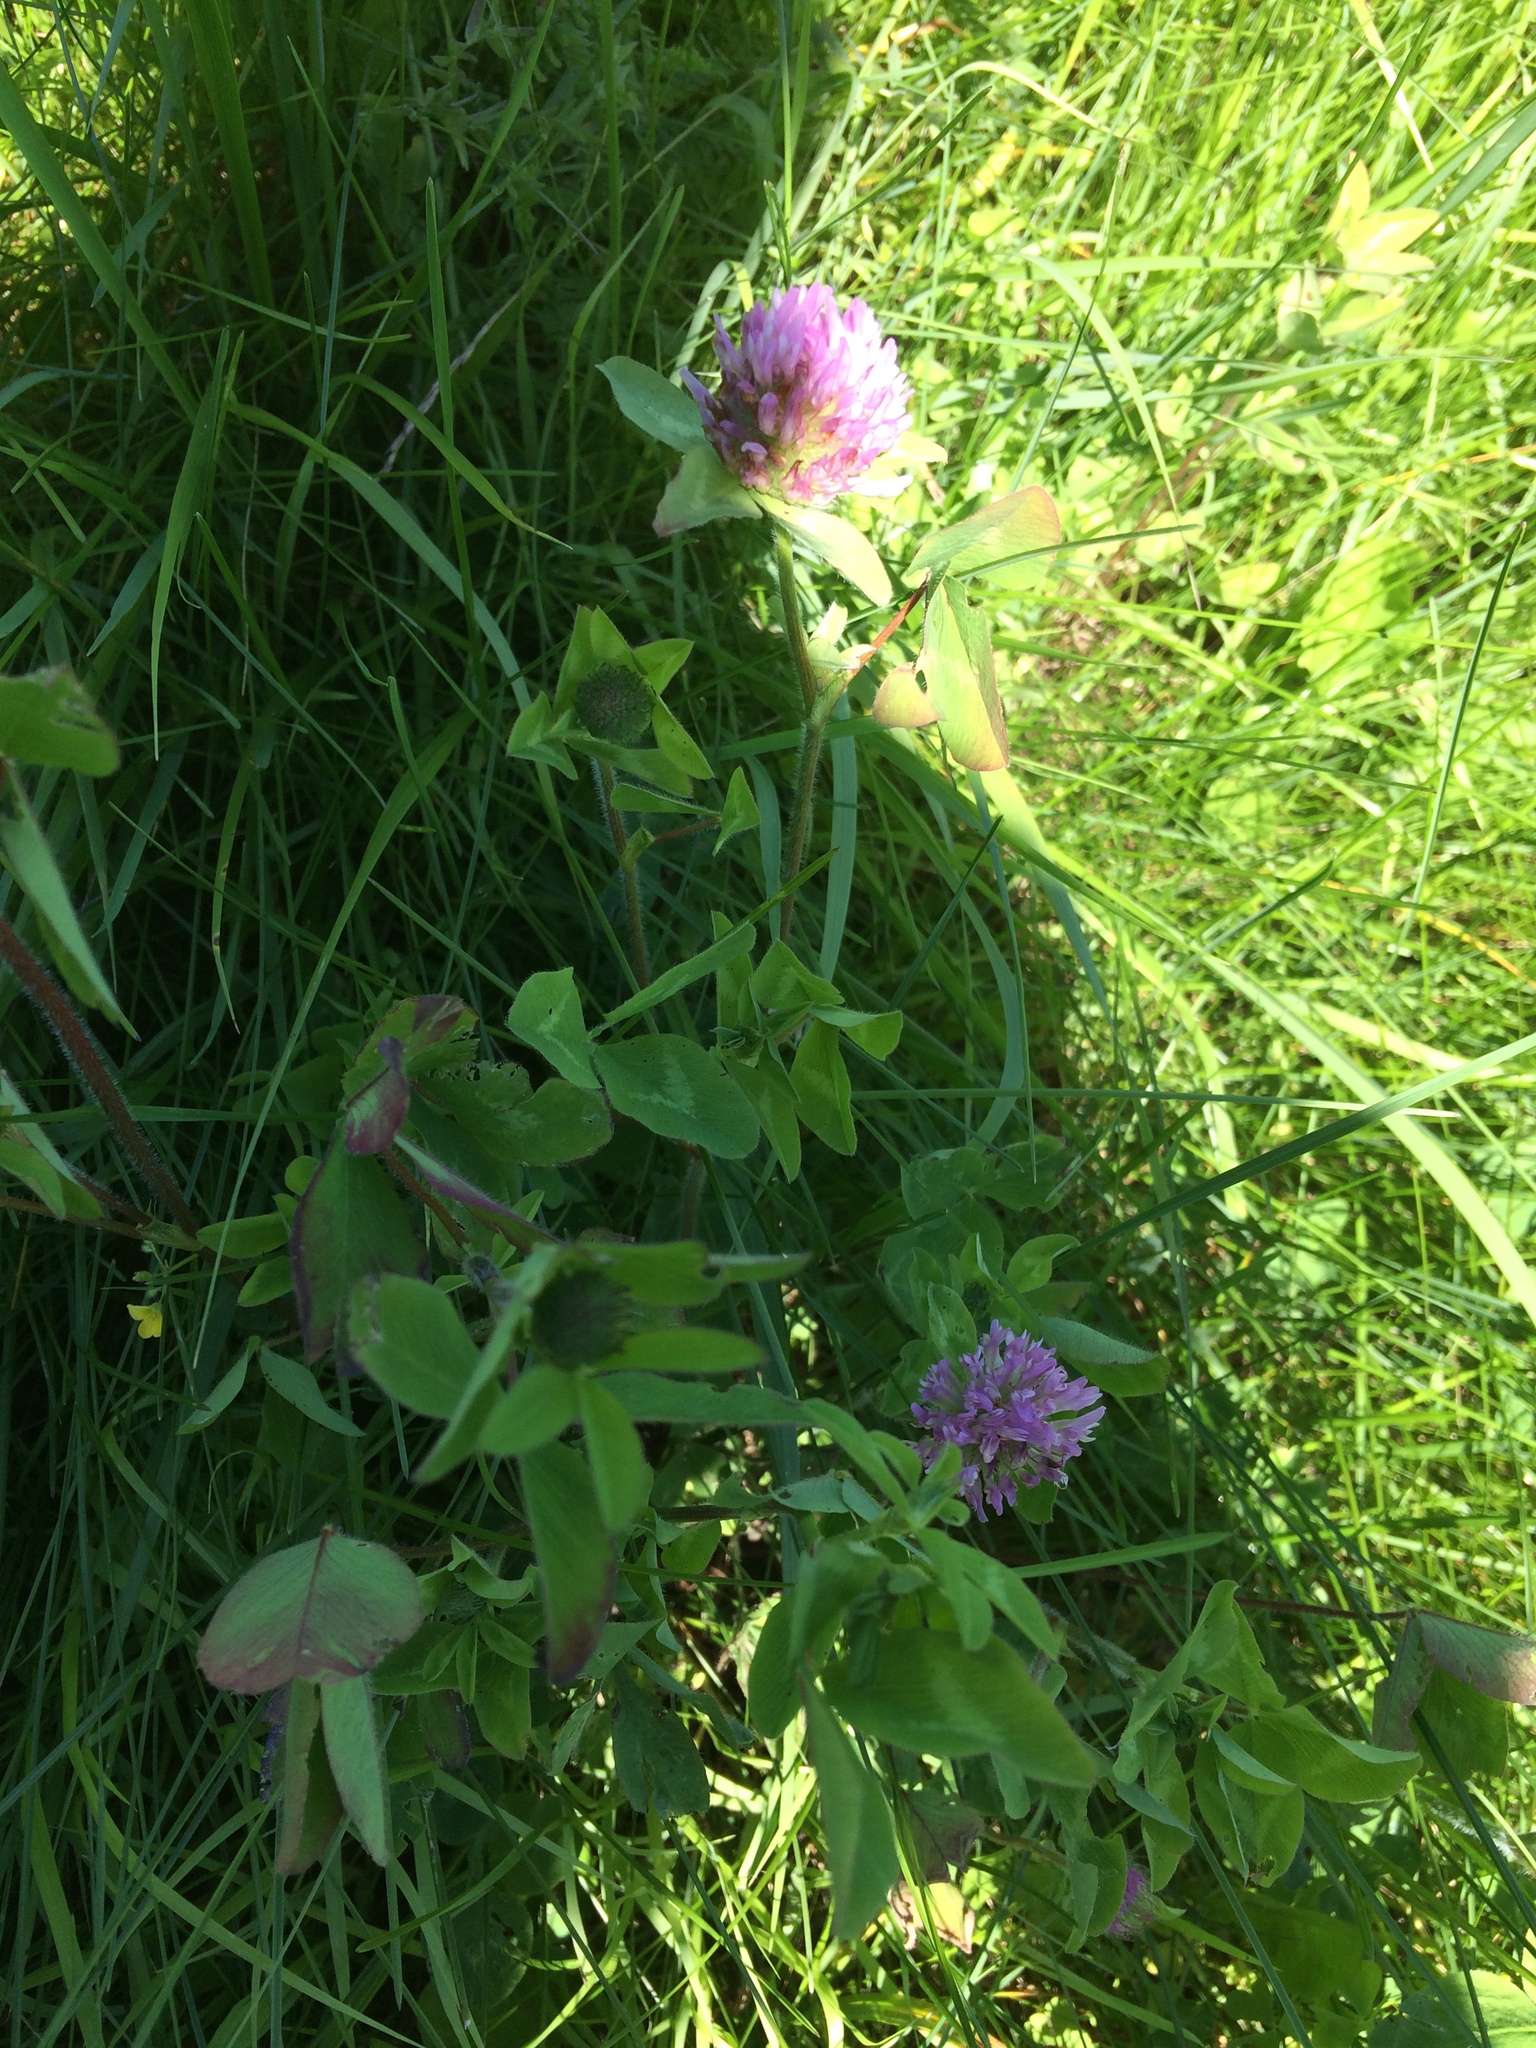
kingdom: Plantae
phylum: Tracheophyta
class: Magnoliopsida
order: Fabales
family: Fabaceae
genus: Trifolium
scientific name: Trifolium pratense
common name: Red clover
